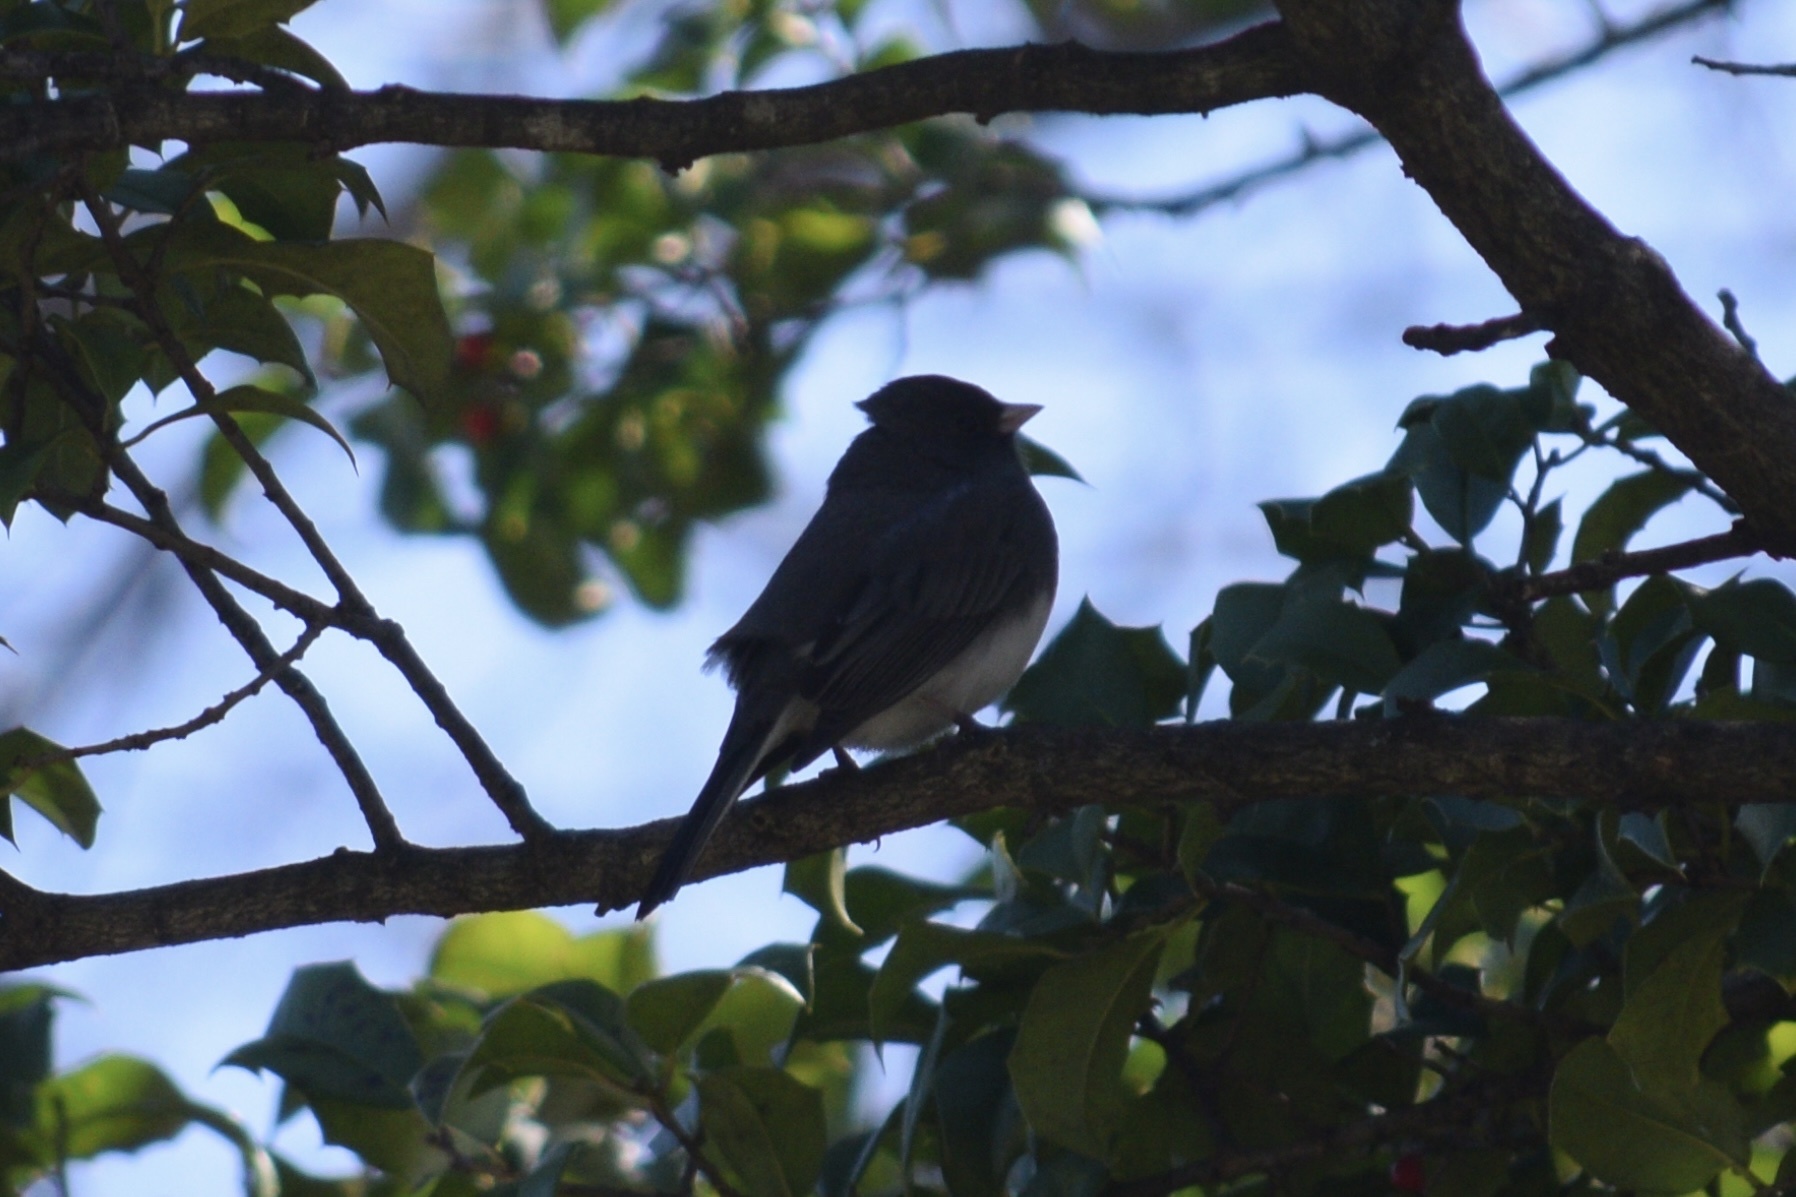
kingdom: Animalia
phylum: Chordata
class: Aves
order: Passeriformes
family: Passerellidae
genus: Junco
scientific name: Junco hyemalis
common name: Dark-eyed junco
